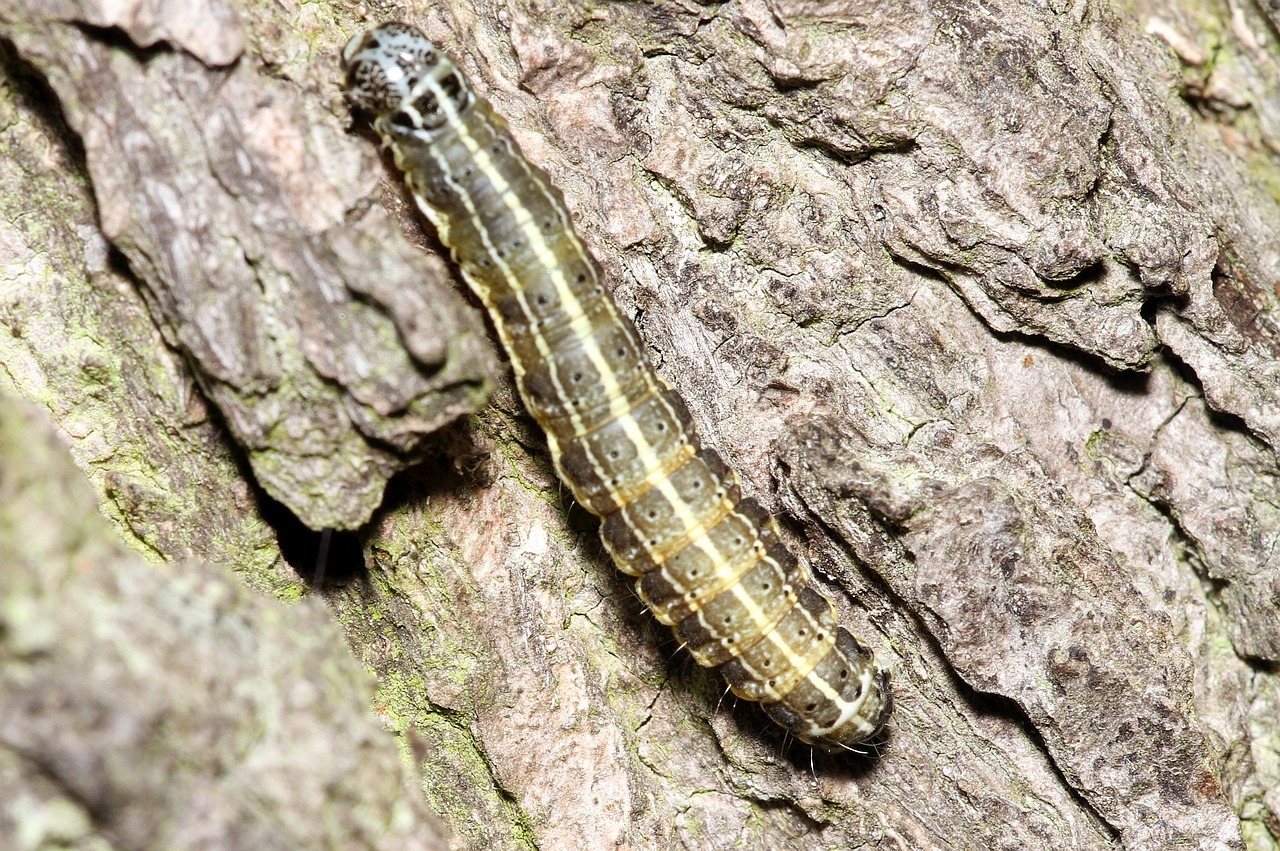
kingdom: Animalia
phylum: Arthropoda
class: Insecta
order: Lepidoptera
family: Noctuidae
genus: Orthosia
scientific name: Orthosia cruda
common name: Small quaker
